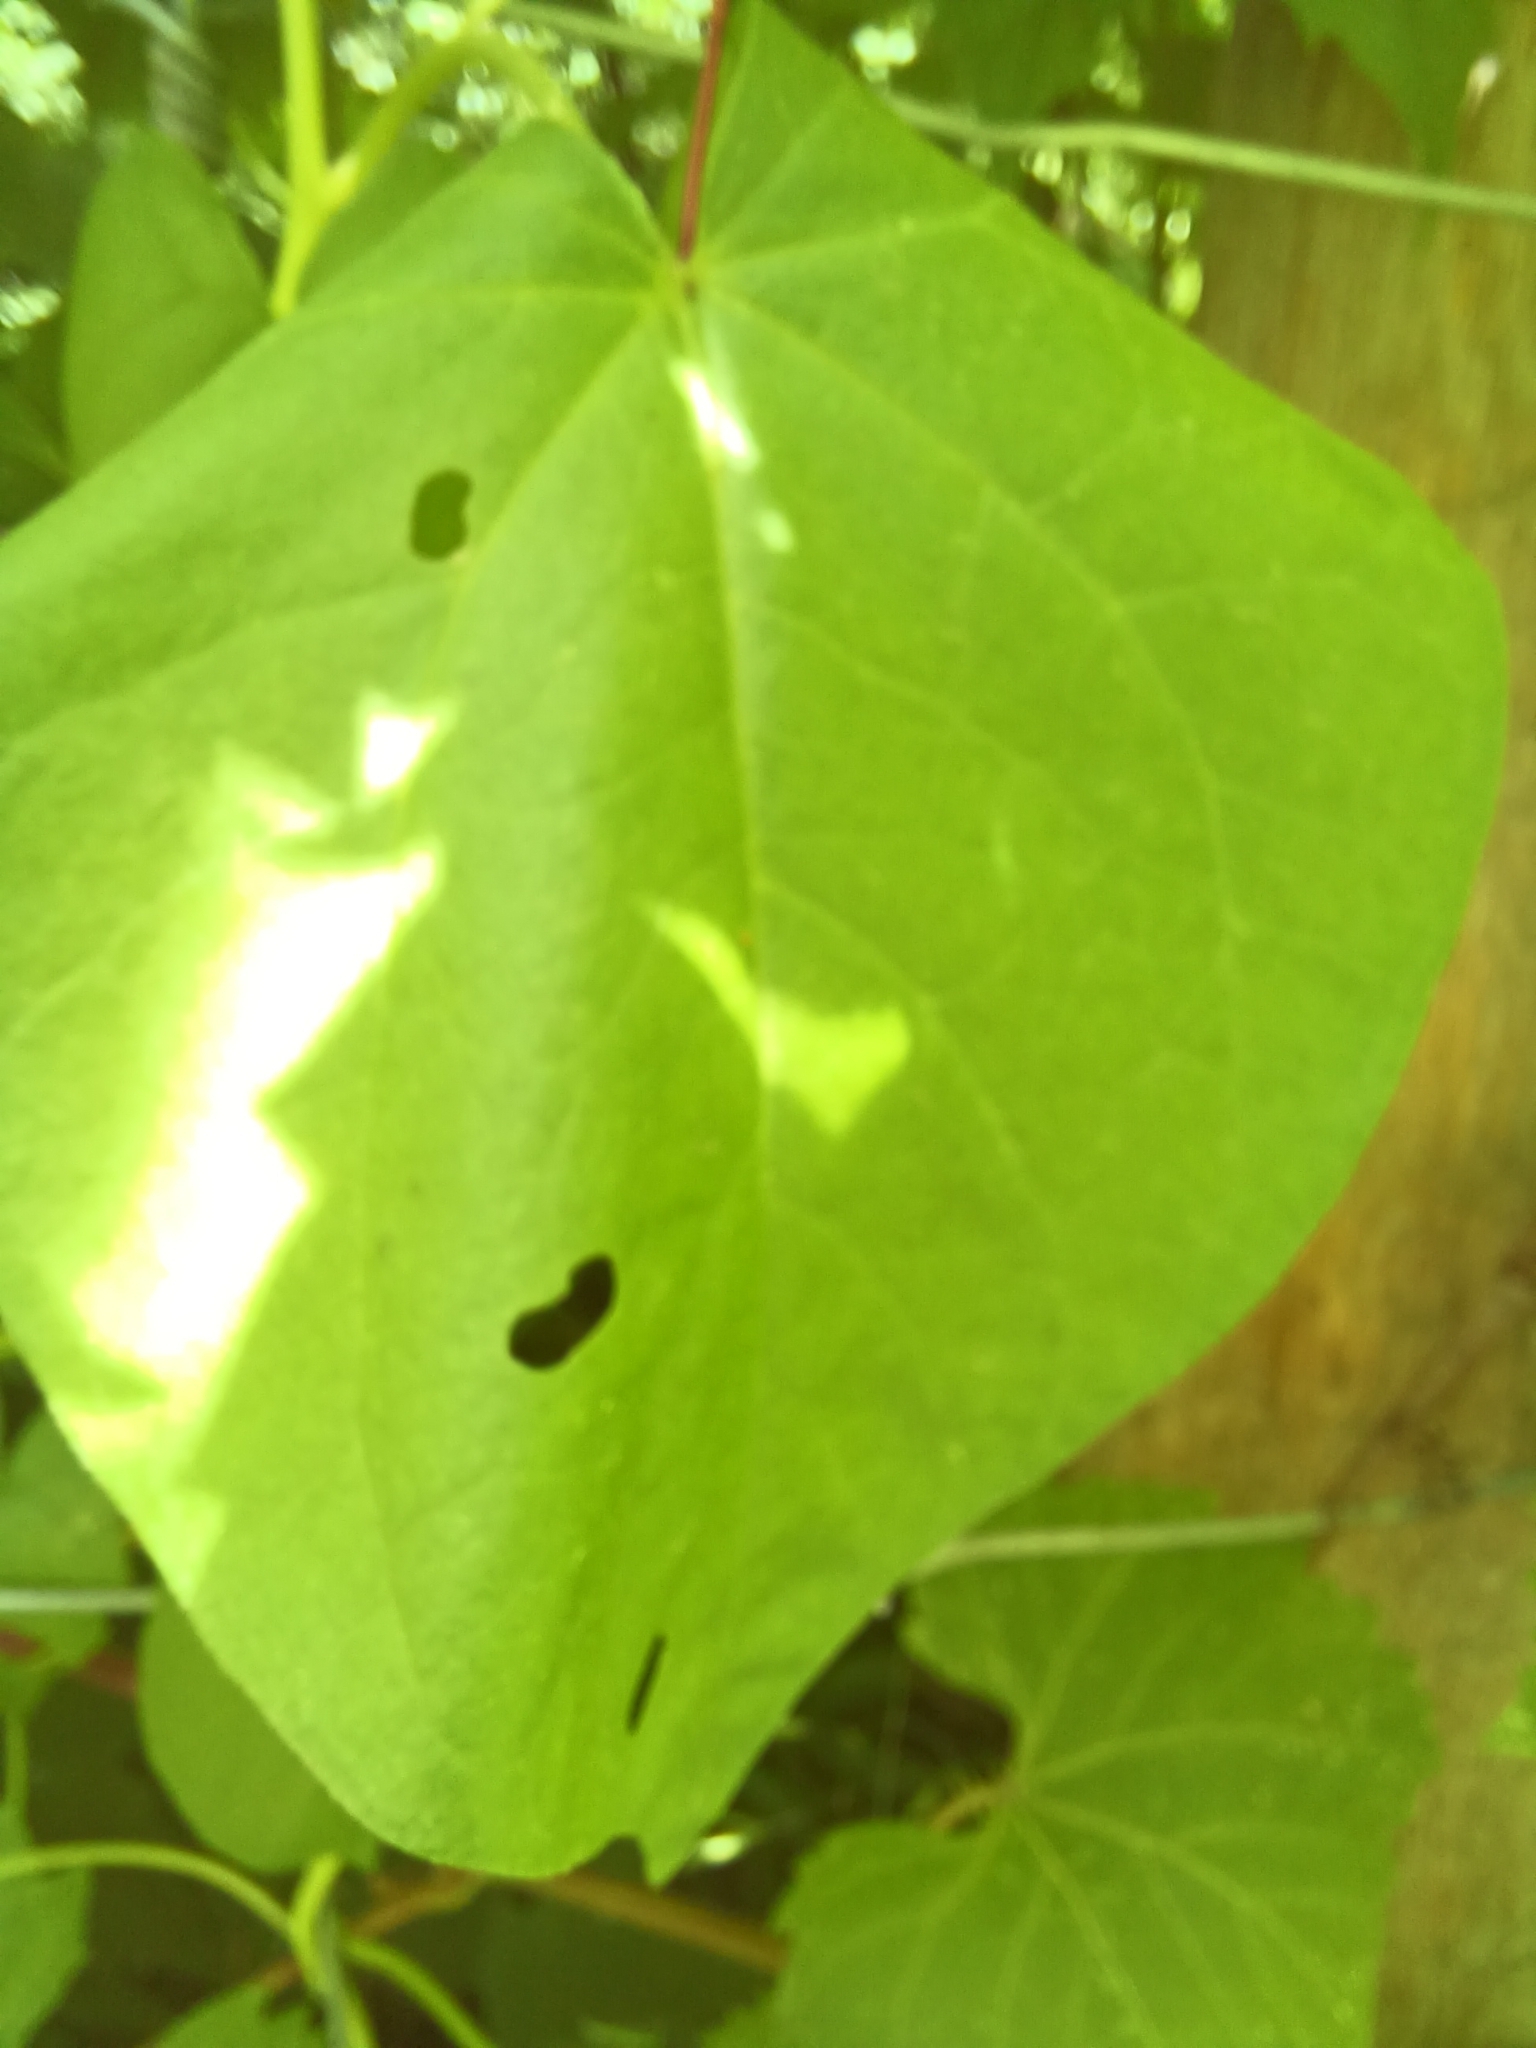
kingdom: Plantae
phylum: Tracheophyta
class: Magnoliopsida
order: Solanales
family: Convolvulaceae
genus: Calystegia
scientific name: Calystegia sepium
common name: Hedge bindweed
